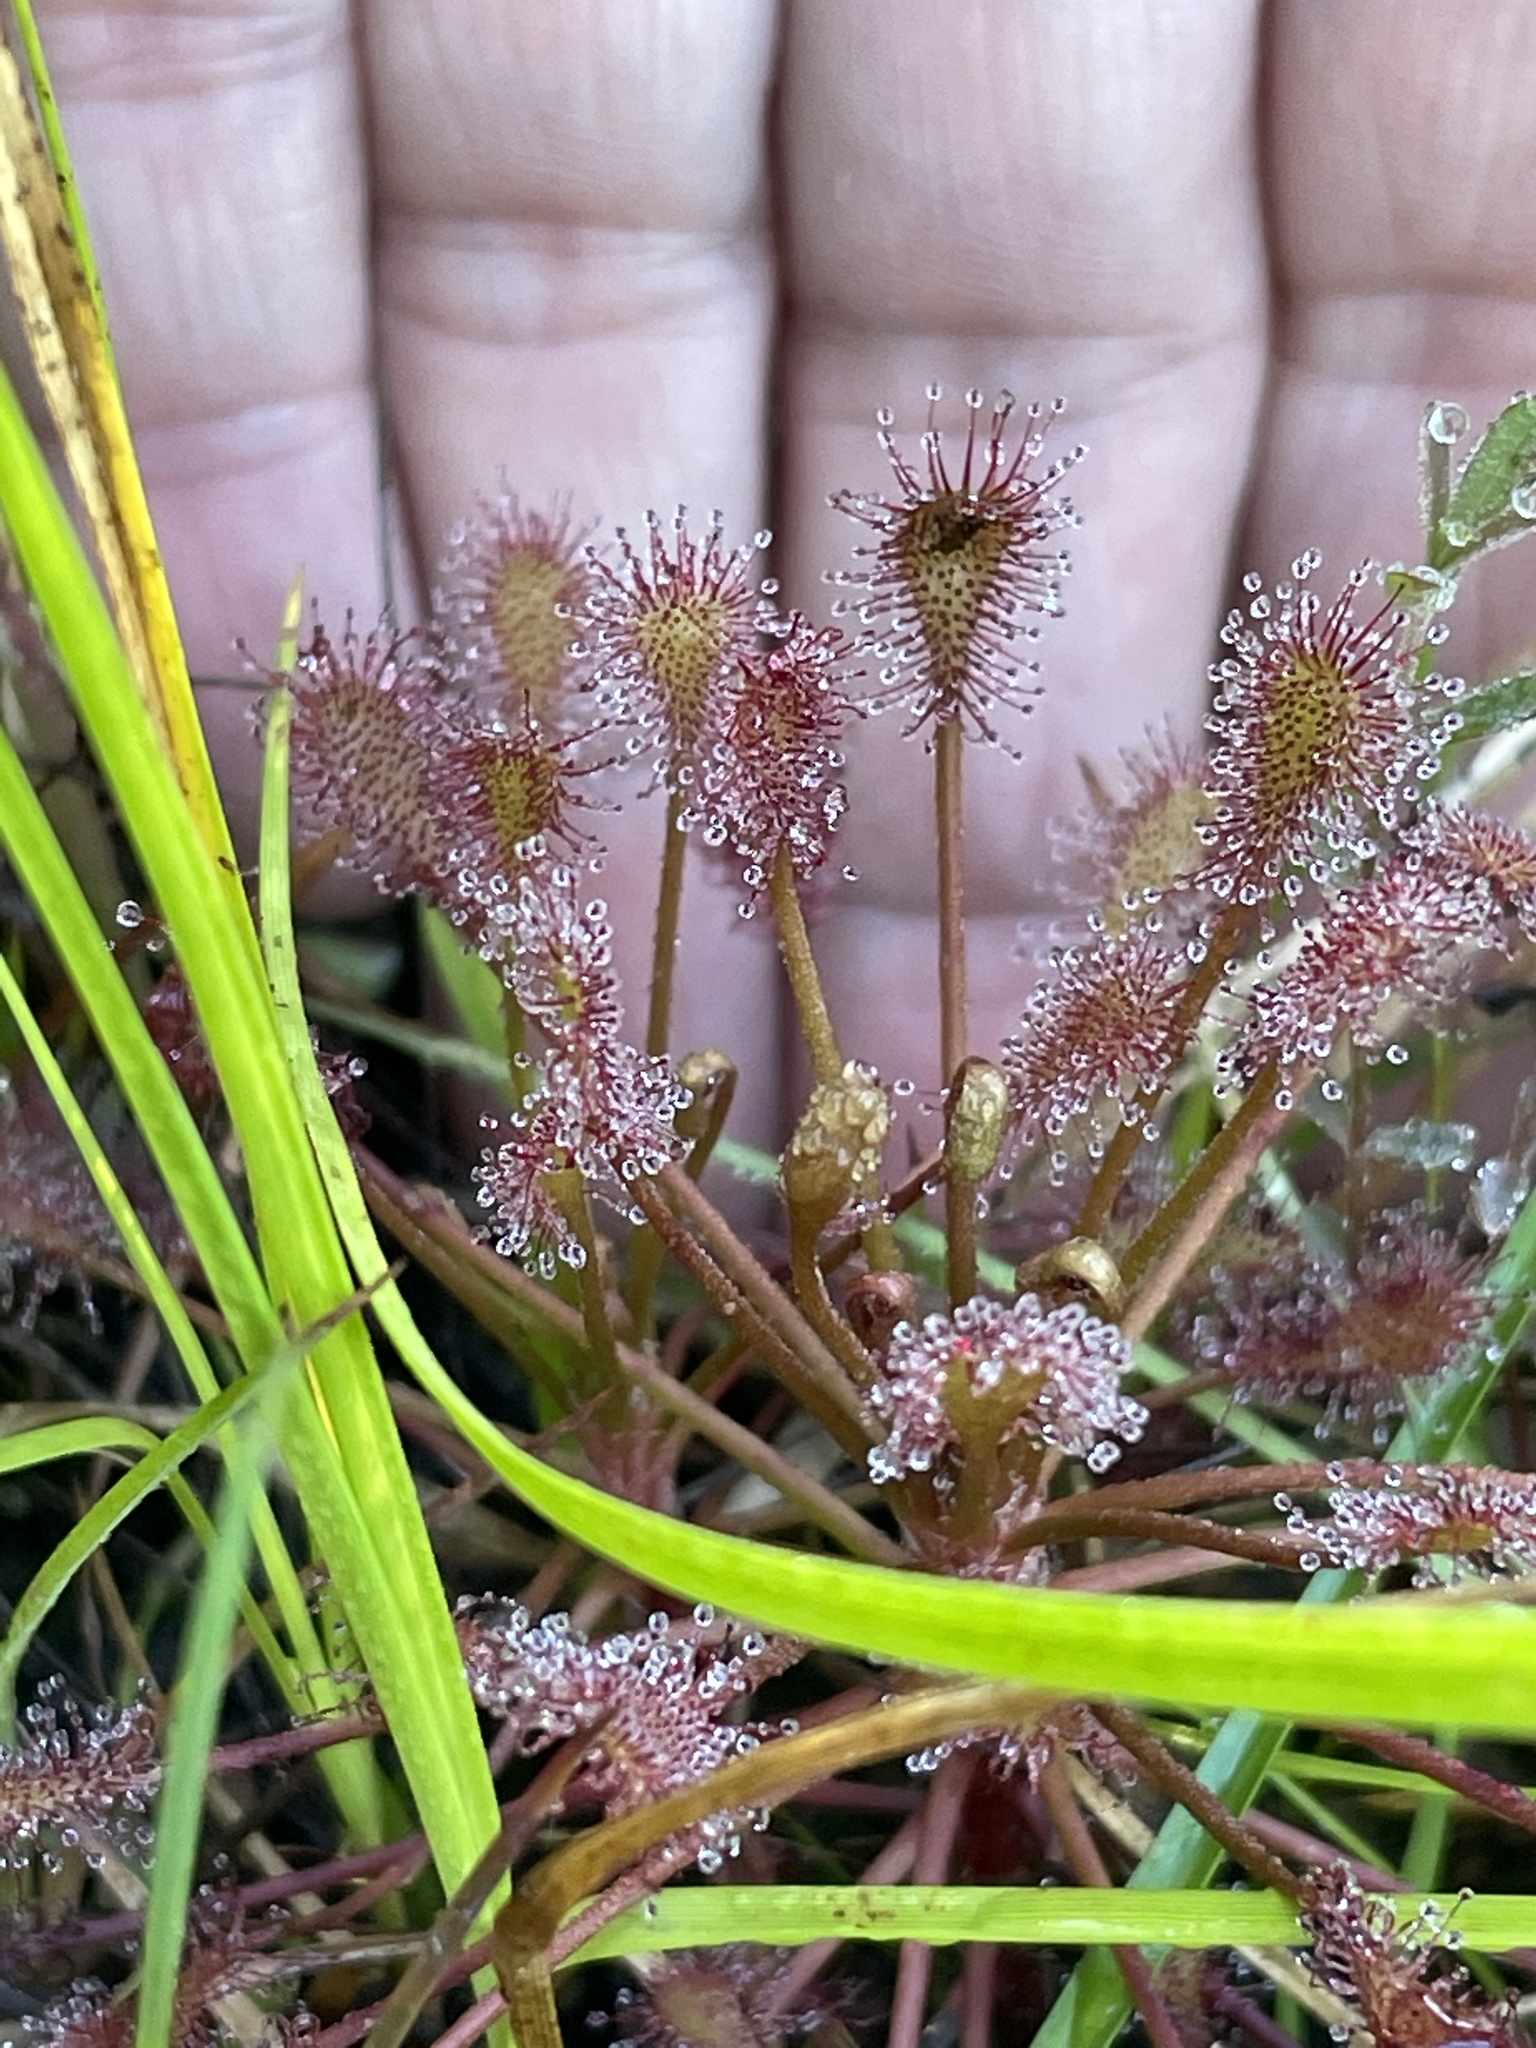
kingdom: Plantae
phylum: Tracheophyta
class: Magnoliopsida
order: Caryophyllales
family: Droseraceae
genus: Drosera
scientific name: Drosera intermedia
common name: Oblong-leaved sundew
